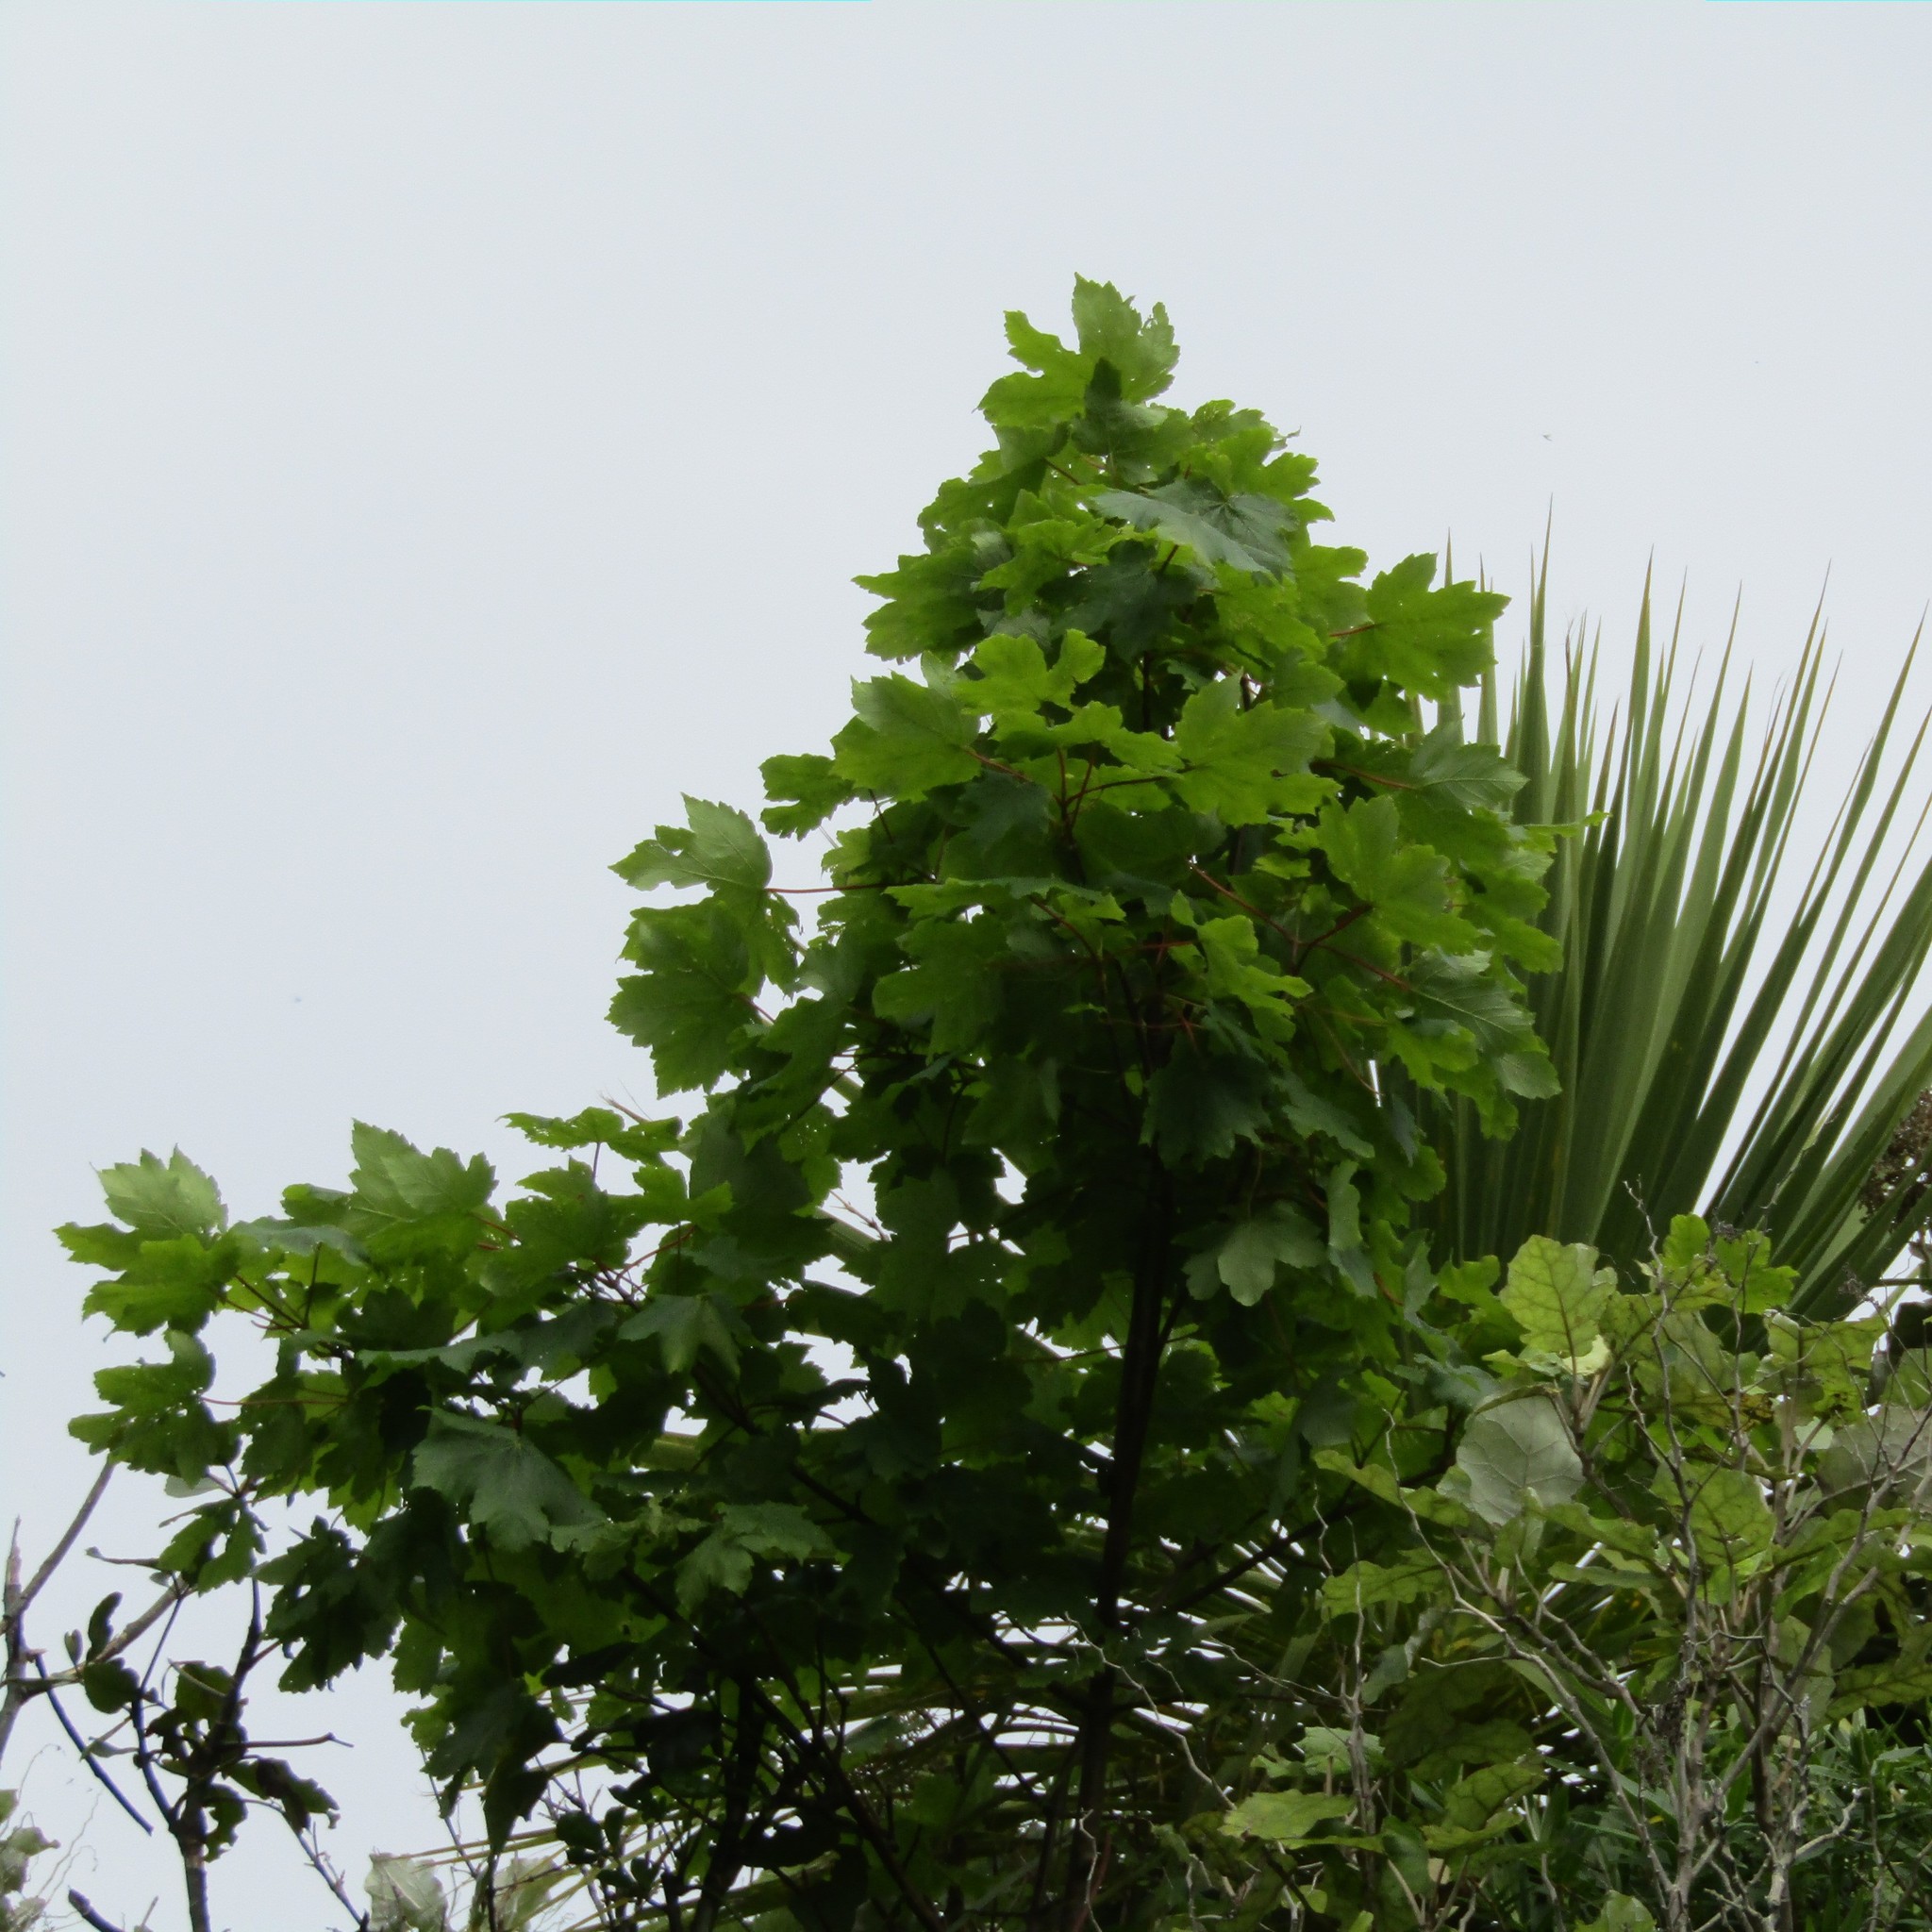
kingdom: Plantae
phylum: Tracheophyta
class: Magnoliopsida
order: Sapindales
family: Sapindaceae
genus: Acer
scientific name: Acer pseudoplatanus
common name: Sycamore
